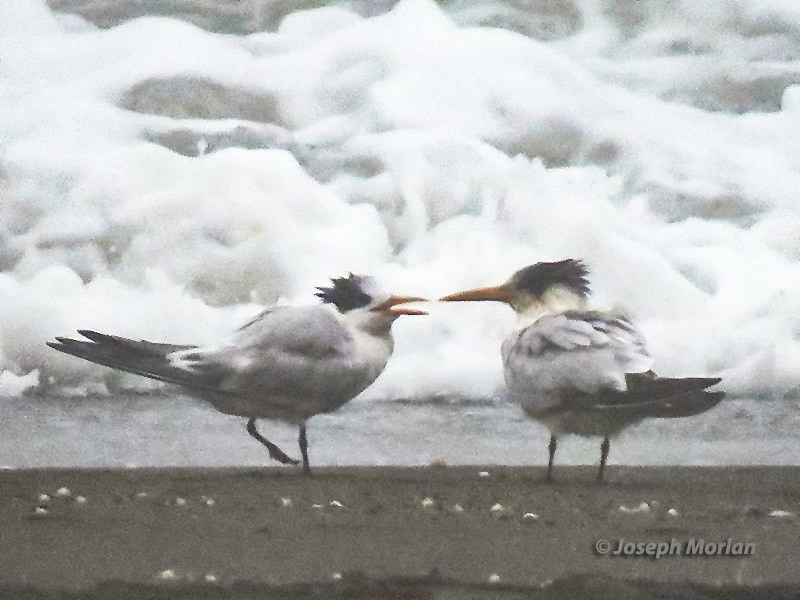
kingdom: Animalia
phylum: Chordata
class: Aves
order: Charadriiformes
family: Laridae
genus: Thalasseus
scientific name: Thalasseus elegans
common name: Elegant tern
